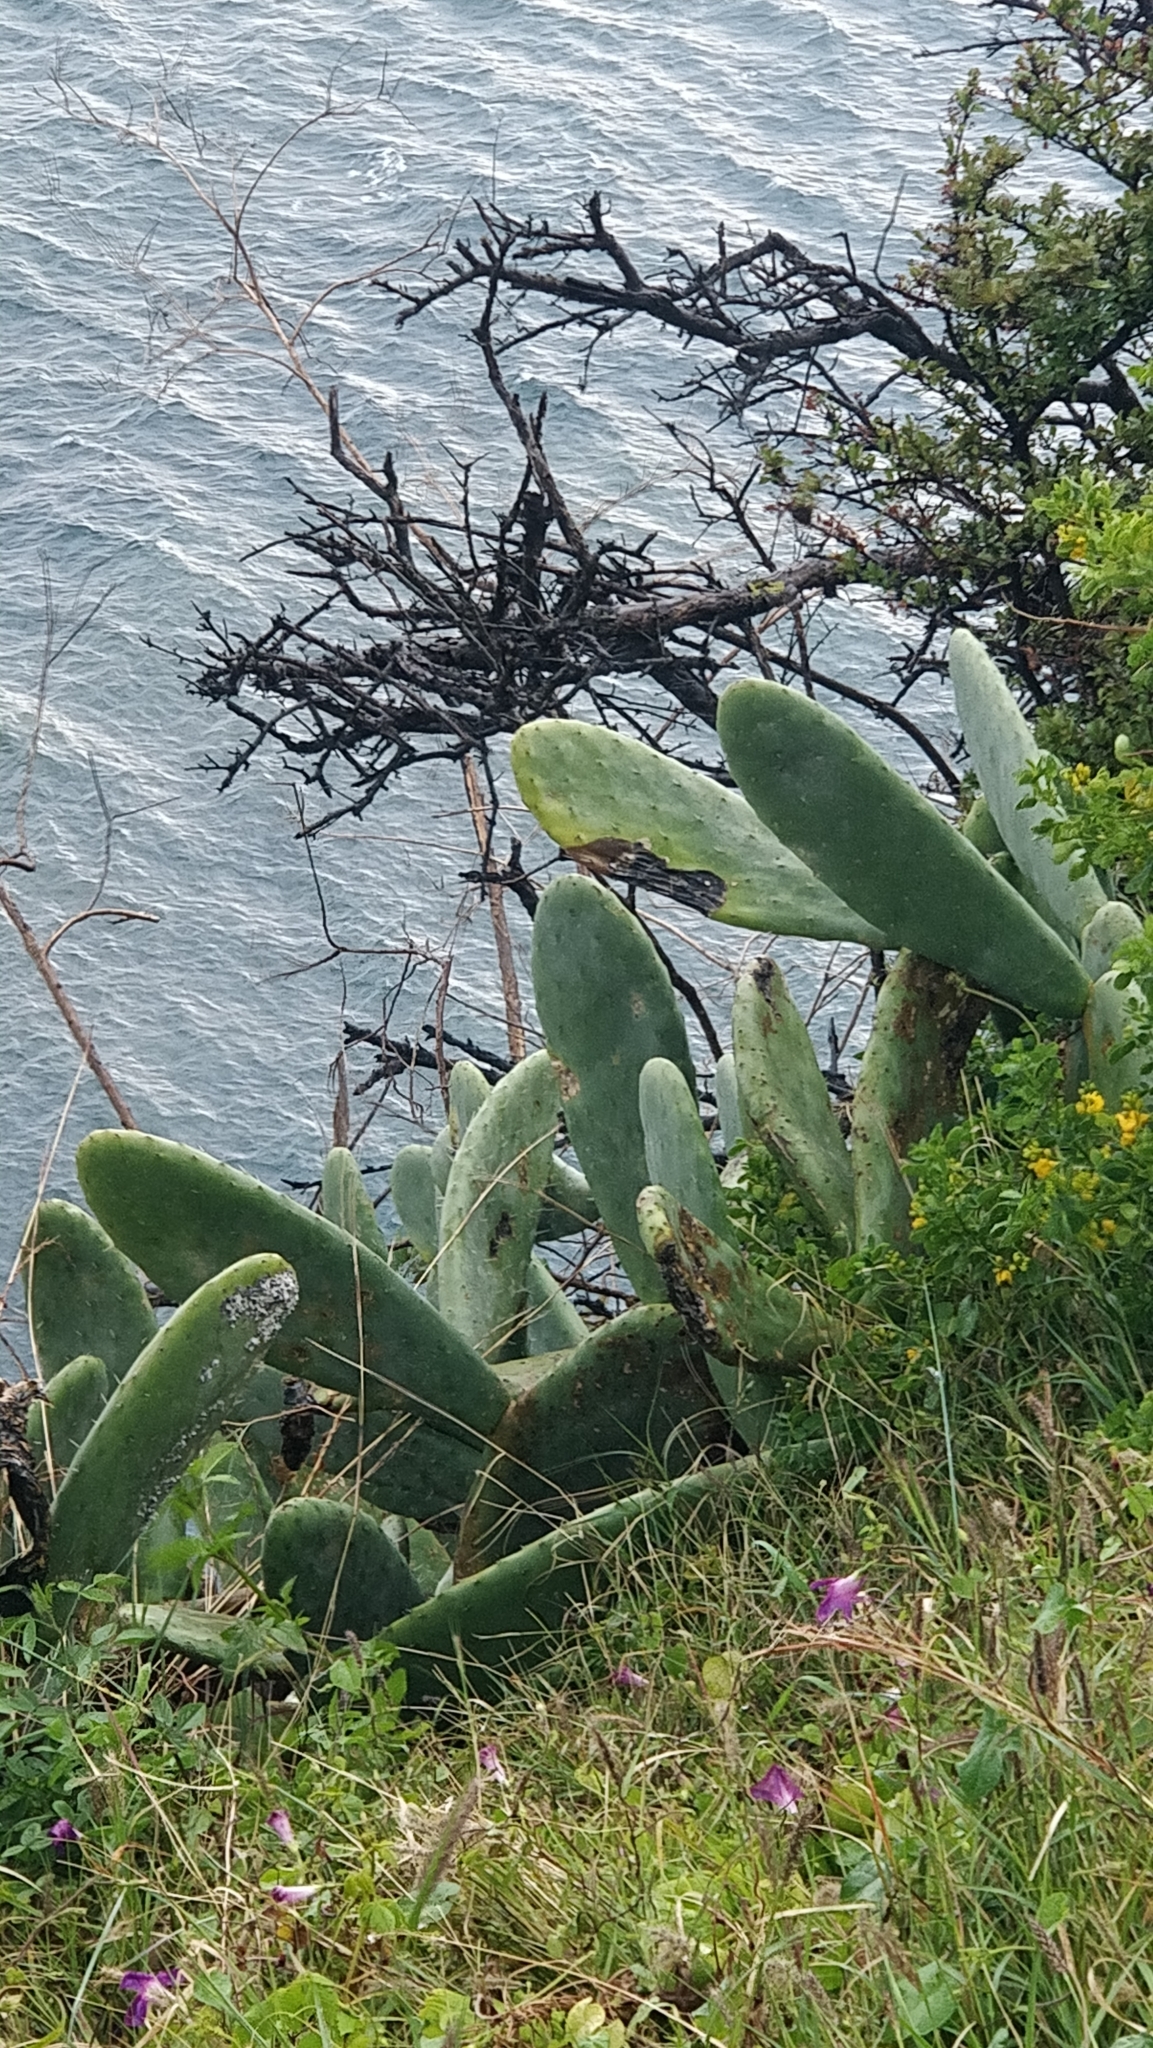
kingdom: Plantae
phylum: Tracheophyta
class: Magnoliopsida
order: Caryophyllales
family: Cactaceae
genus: Opuntia
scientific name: Opuntia ficus-indica
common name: Barbary fig
